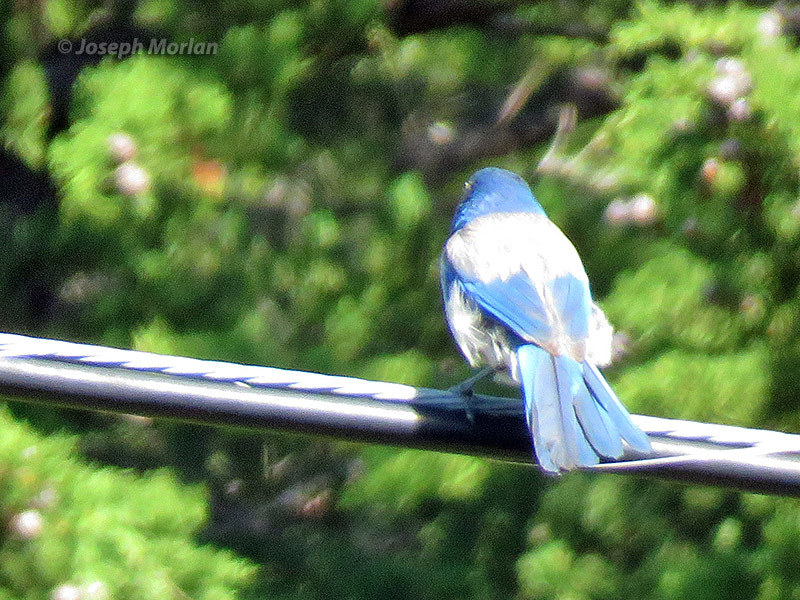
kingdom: Animalia
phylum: Chordata
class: Aves
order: Passeriformes
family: Corvidae
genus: Aphelocoma
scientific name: Aphelocoma californica
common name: California scrub-jay
